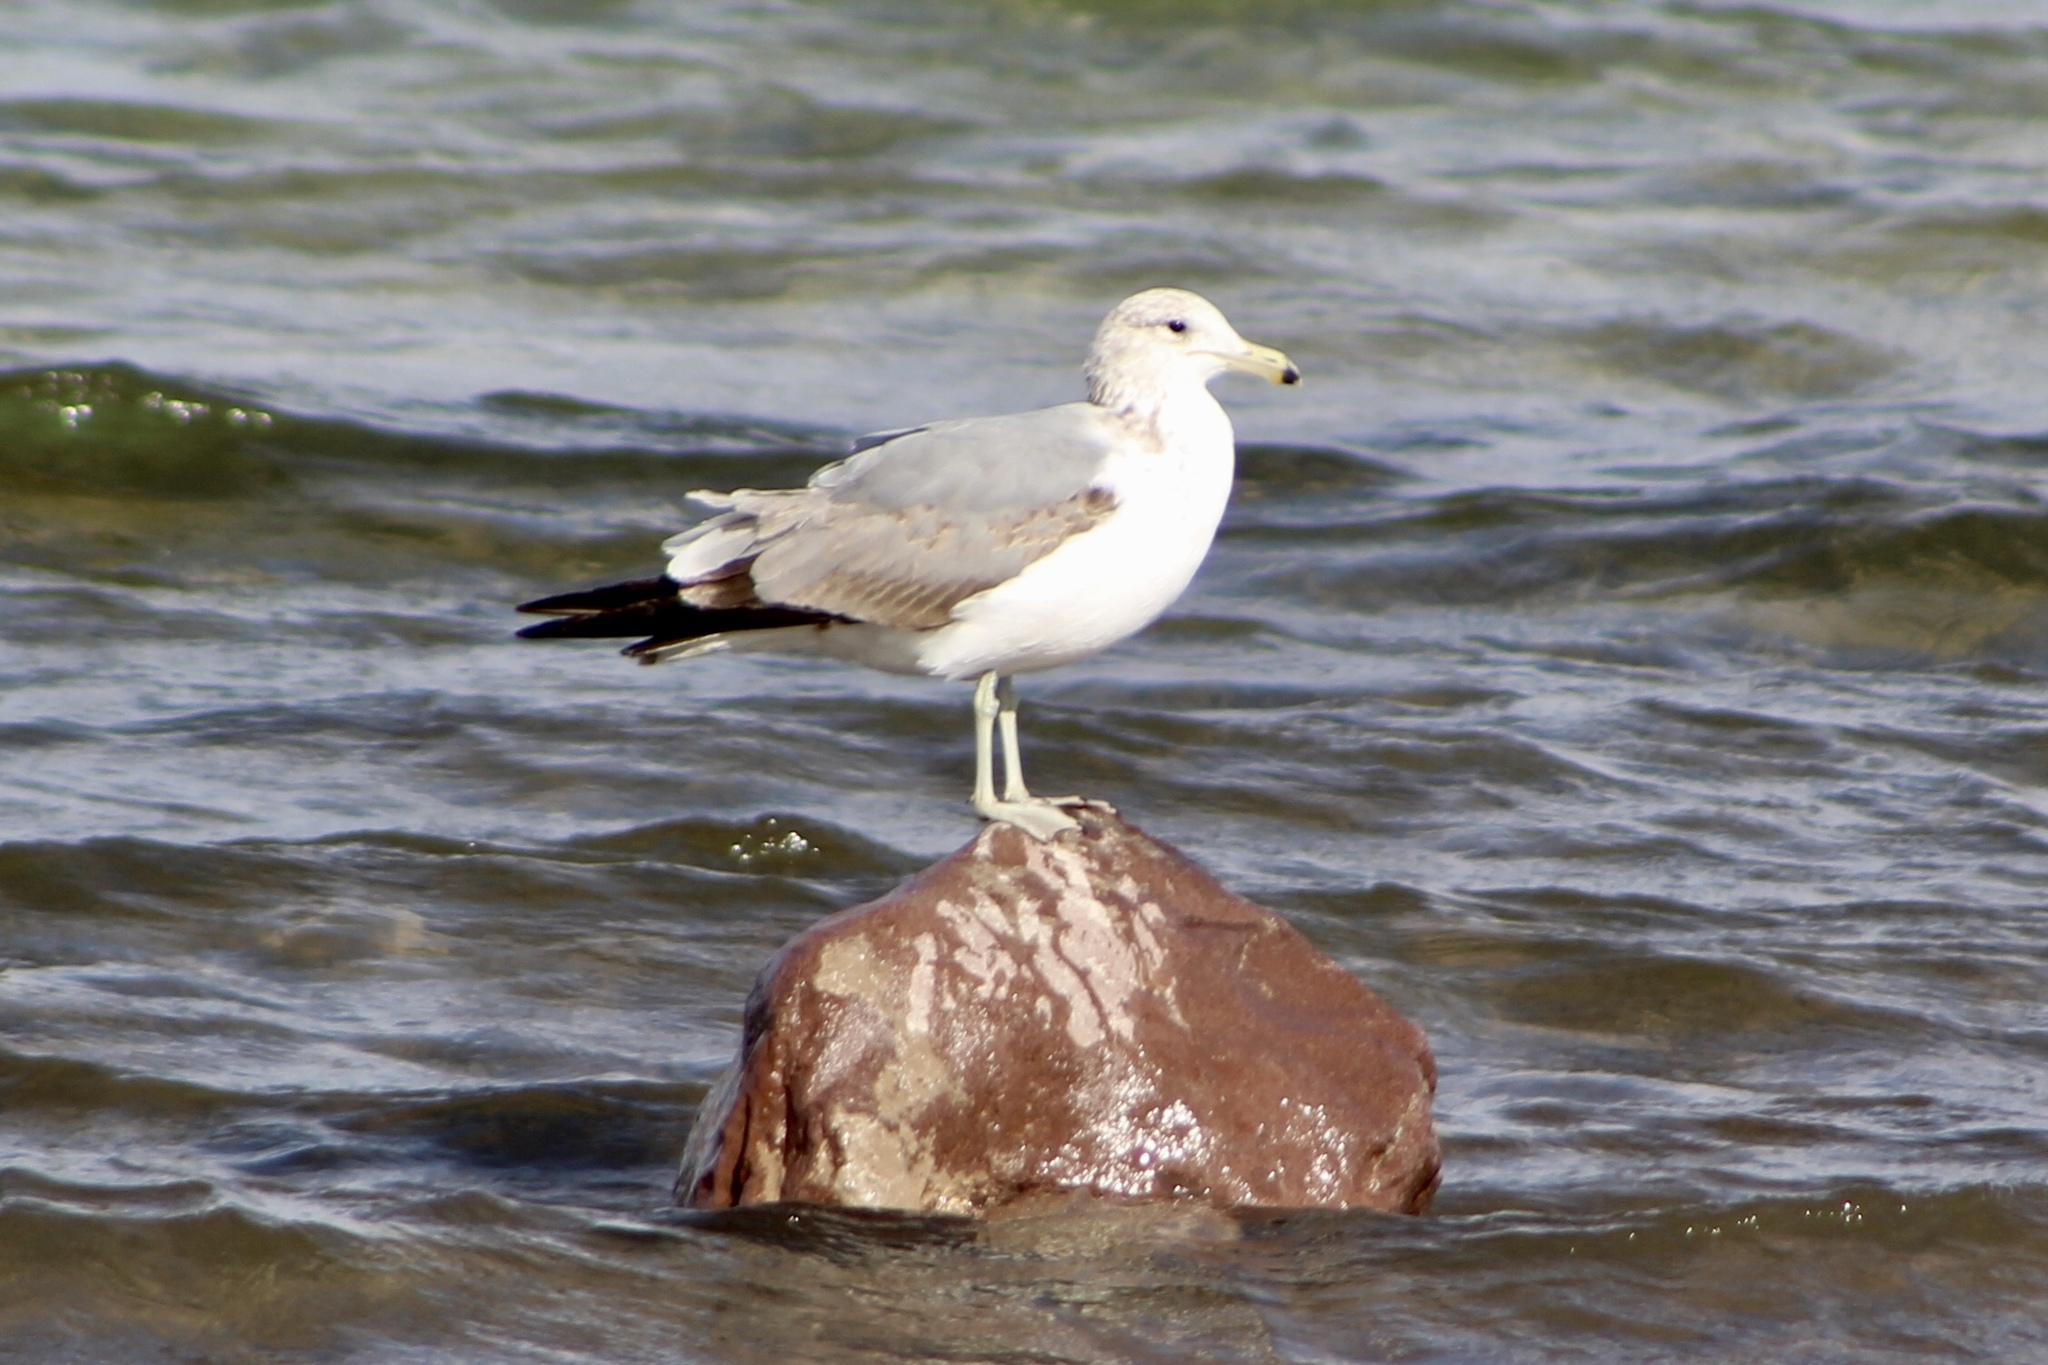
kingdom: Animalia
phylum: Chordata
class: Aves
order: Charadriiformes
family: Laridae
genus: Larus
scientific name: Larus californicus
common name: California gull
